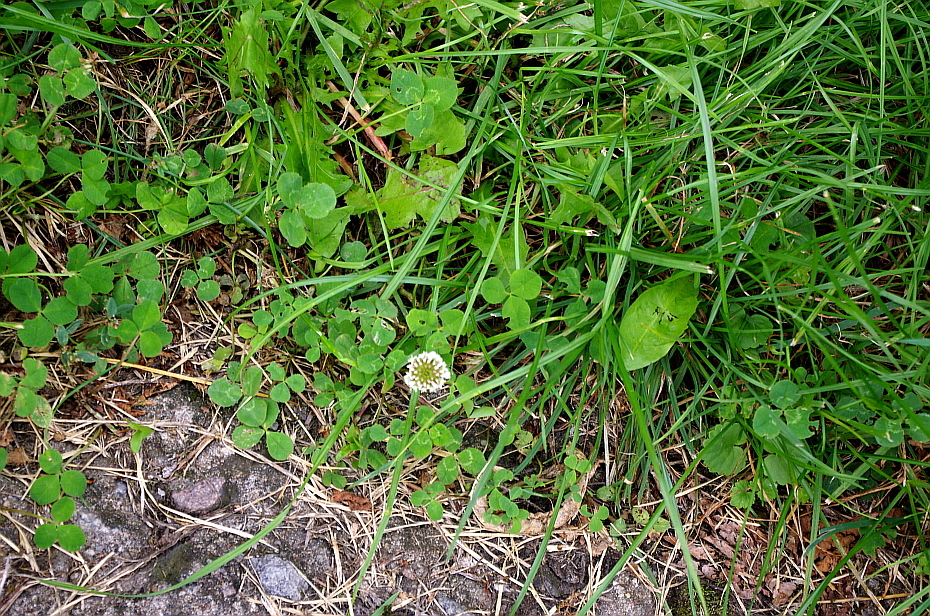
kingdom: Plantae
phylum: Tracheophyta
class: Magnoliopsida
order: Fabales
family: Fabaceae
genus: Trifolium
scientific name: Trifolium repens
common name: White clover
